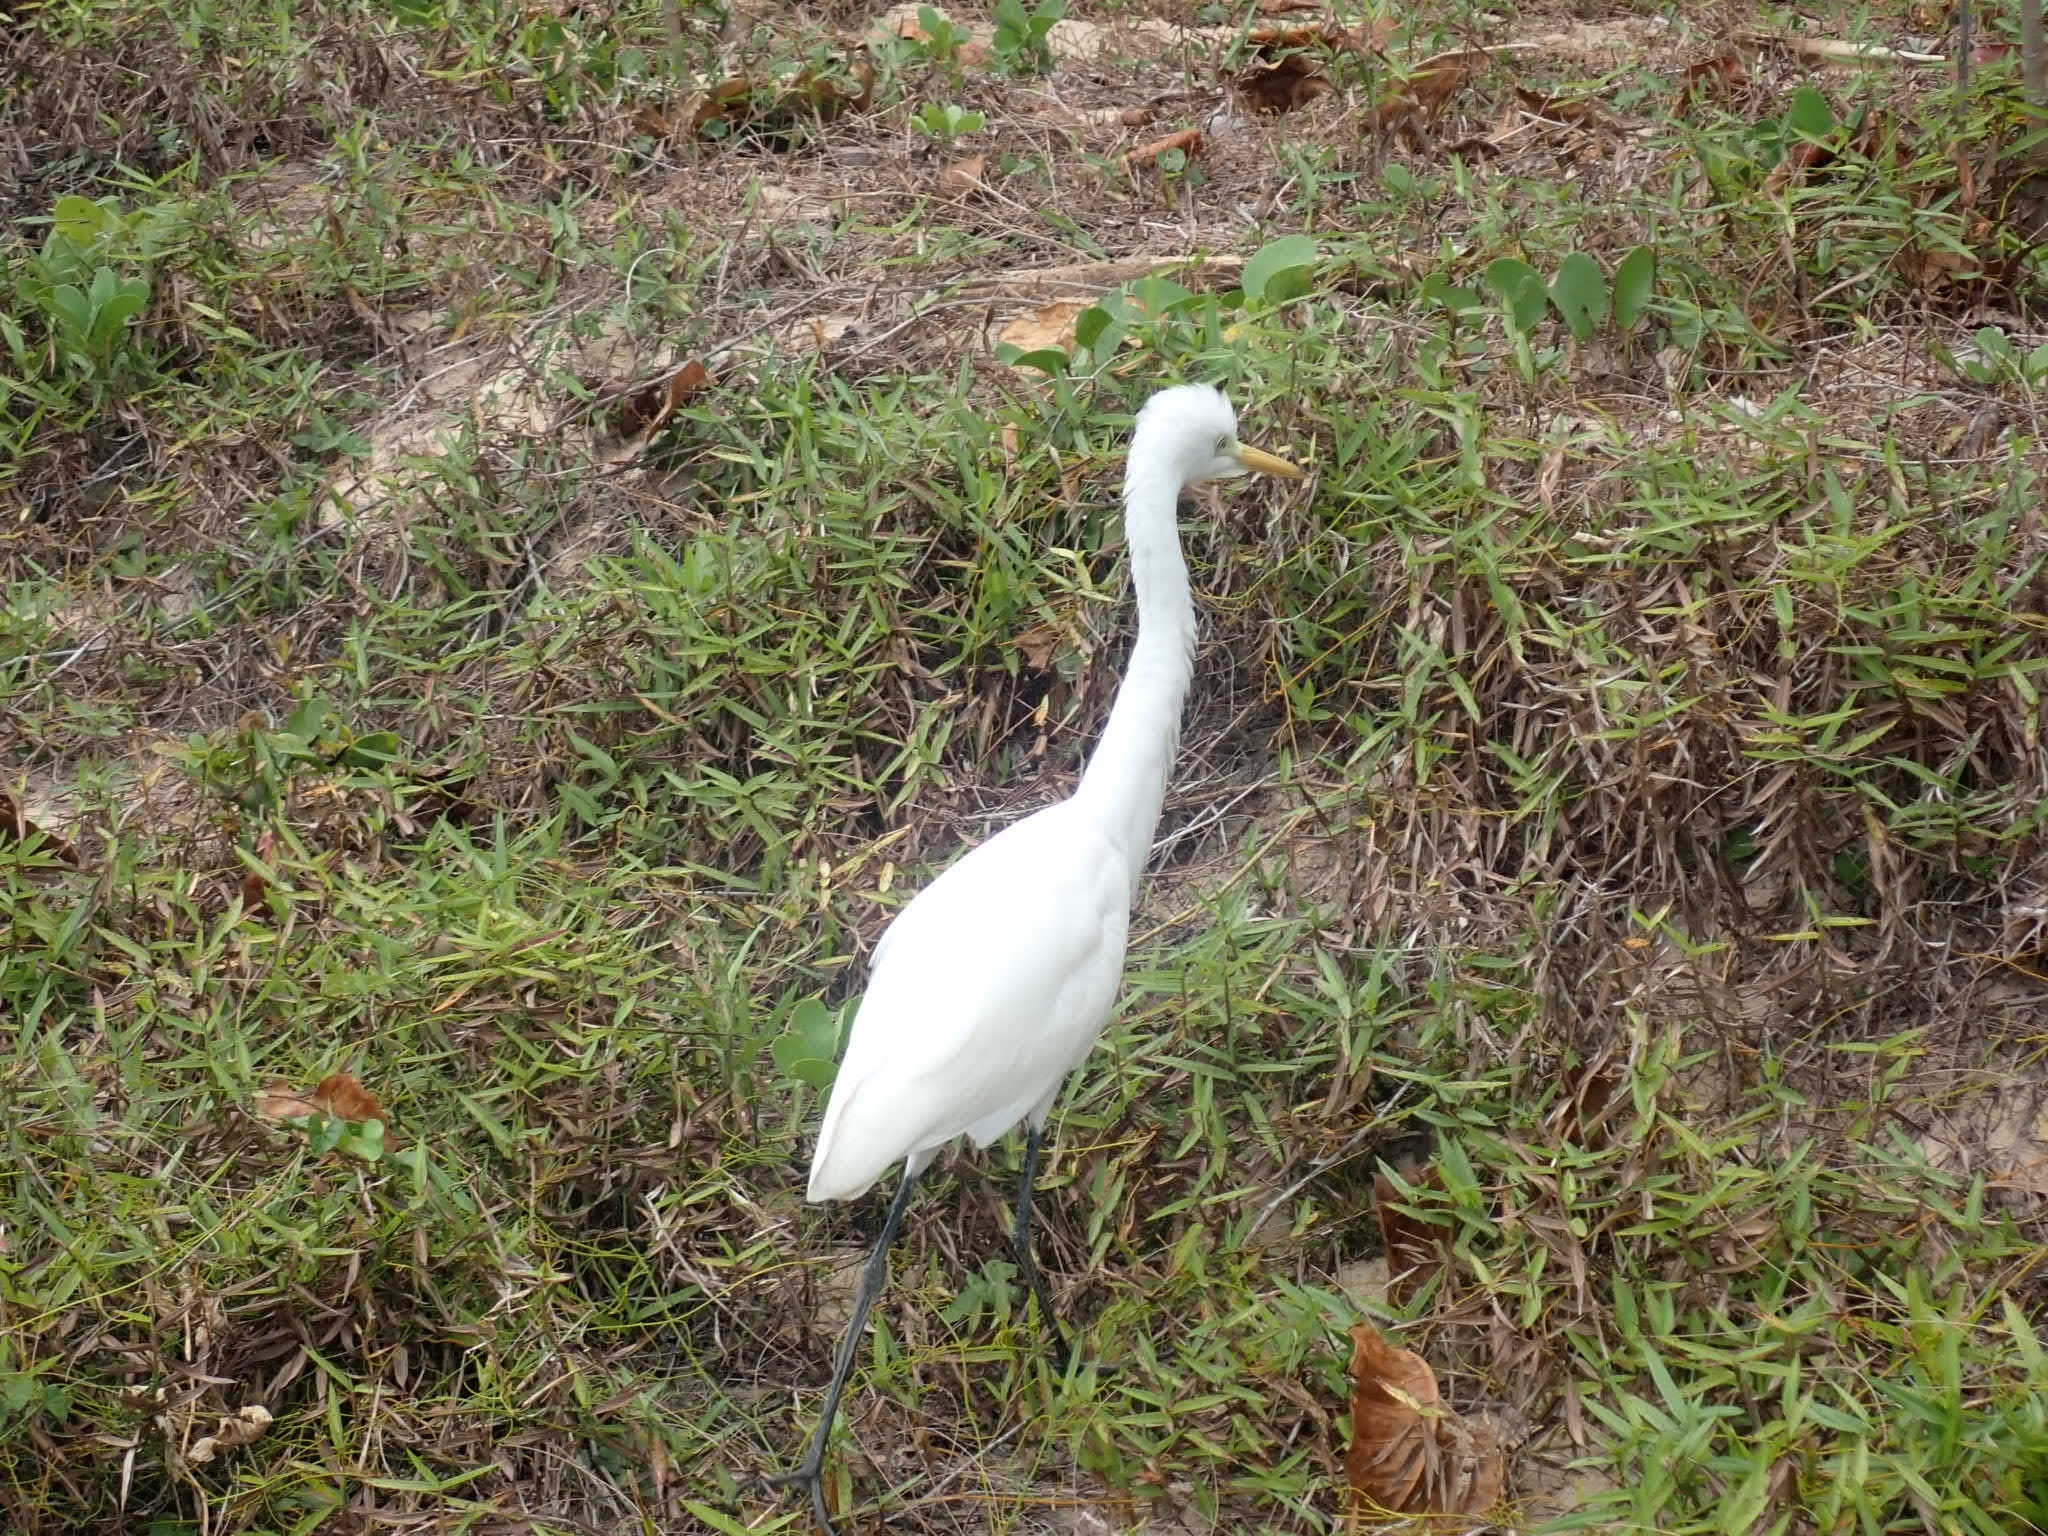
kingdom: Animalia
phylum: Chordata
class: Aves
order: Pelecaniformes
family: Ardeidae
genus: Bubulcus
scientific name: Bubulcus coromandus
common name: Eastern cattle egret
